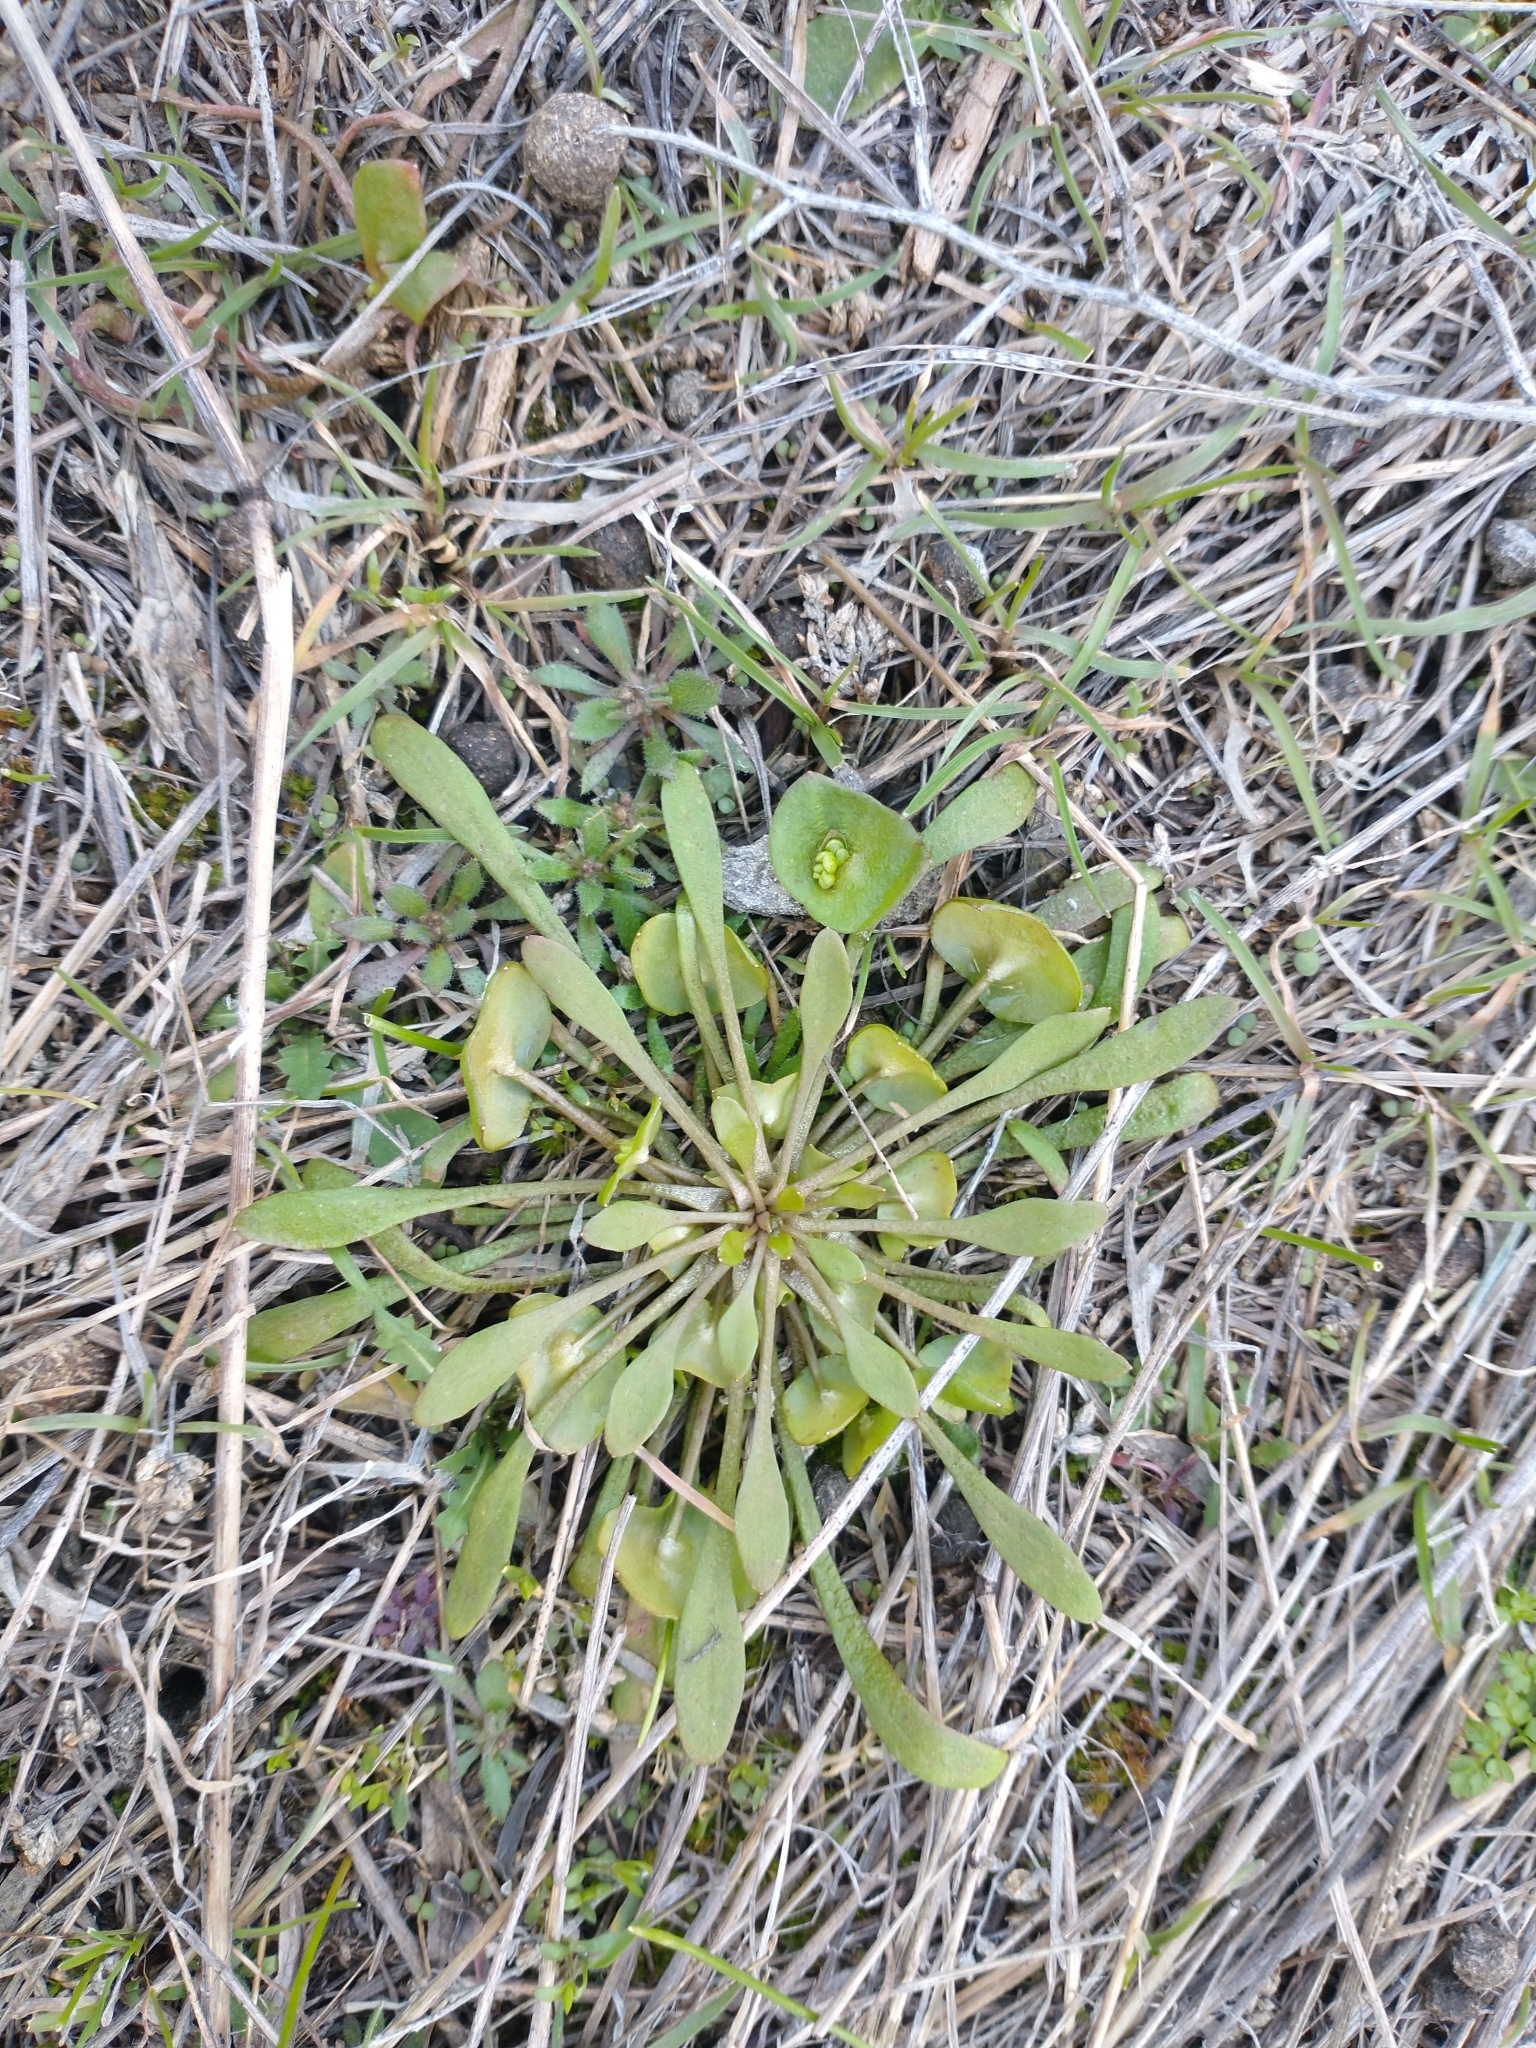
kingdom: Plantae
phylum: Tracheophyta
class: Magnoliopsida
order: Caryophyllales
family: Montiaceae
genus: Claytonia
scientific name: Claytonia perfoliata
